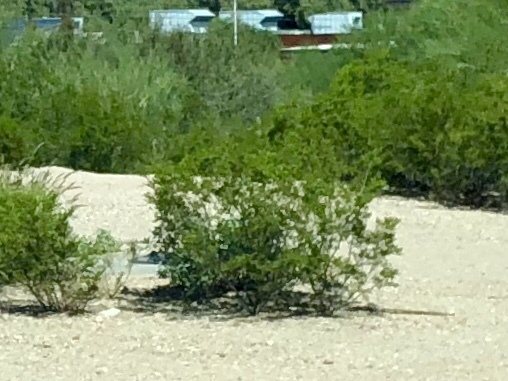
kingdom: Plantae
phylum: Tracheophyta
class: Magnoliopsida
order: Zygophyllales
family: Zygophyllaceae
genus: Larrea
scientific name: Larrea tridentata
